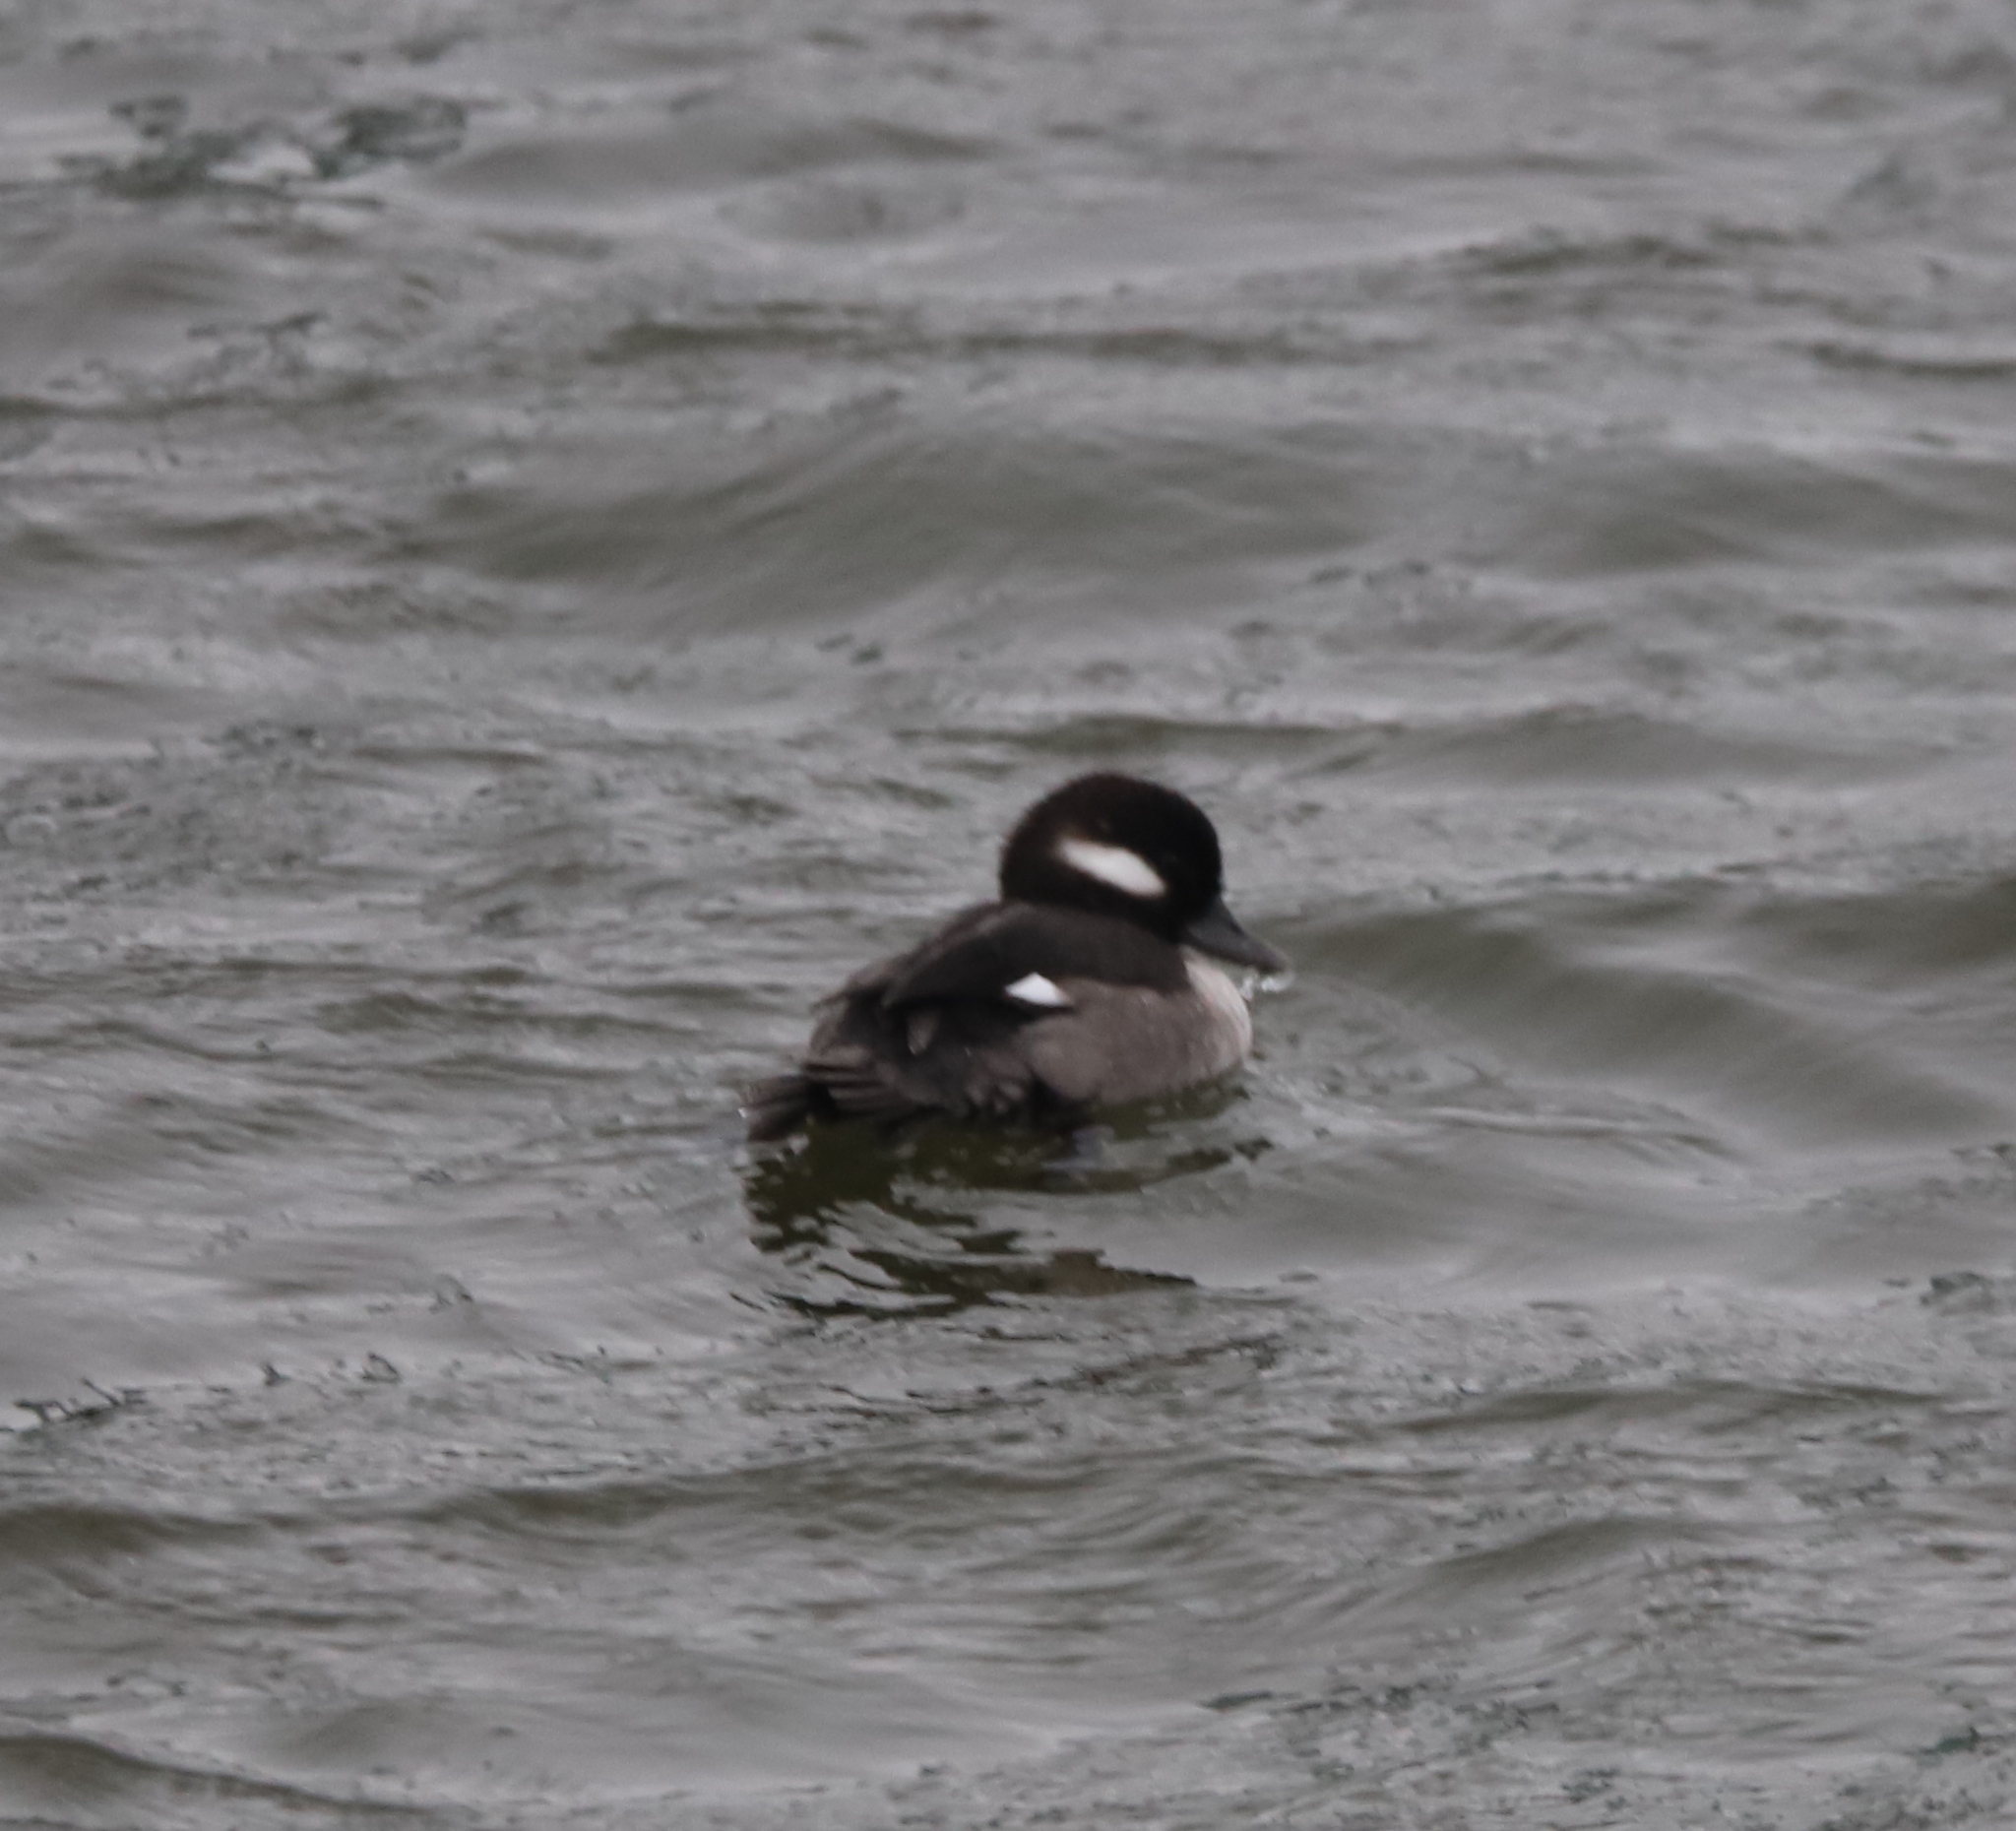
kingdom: Animalia
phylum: Chordata
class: Aves
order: Anseriformes
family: Anatidae
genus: Bucephala
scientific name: Bucephala albeola
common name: Bufflehead
